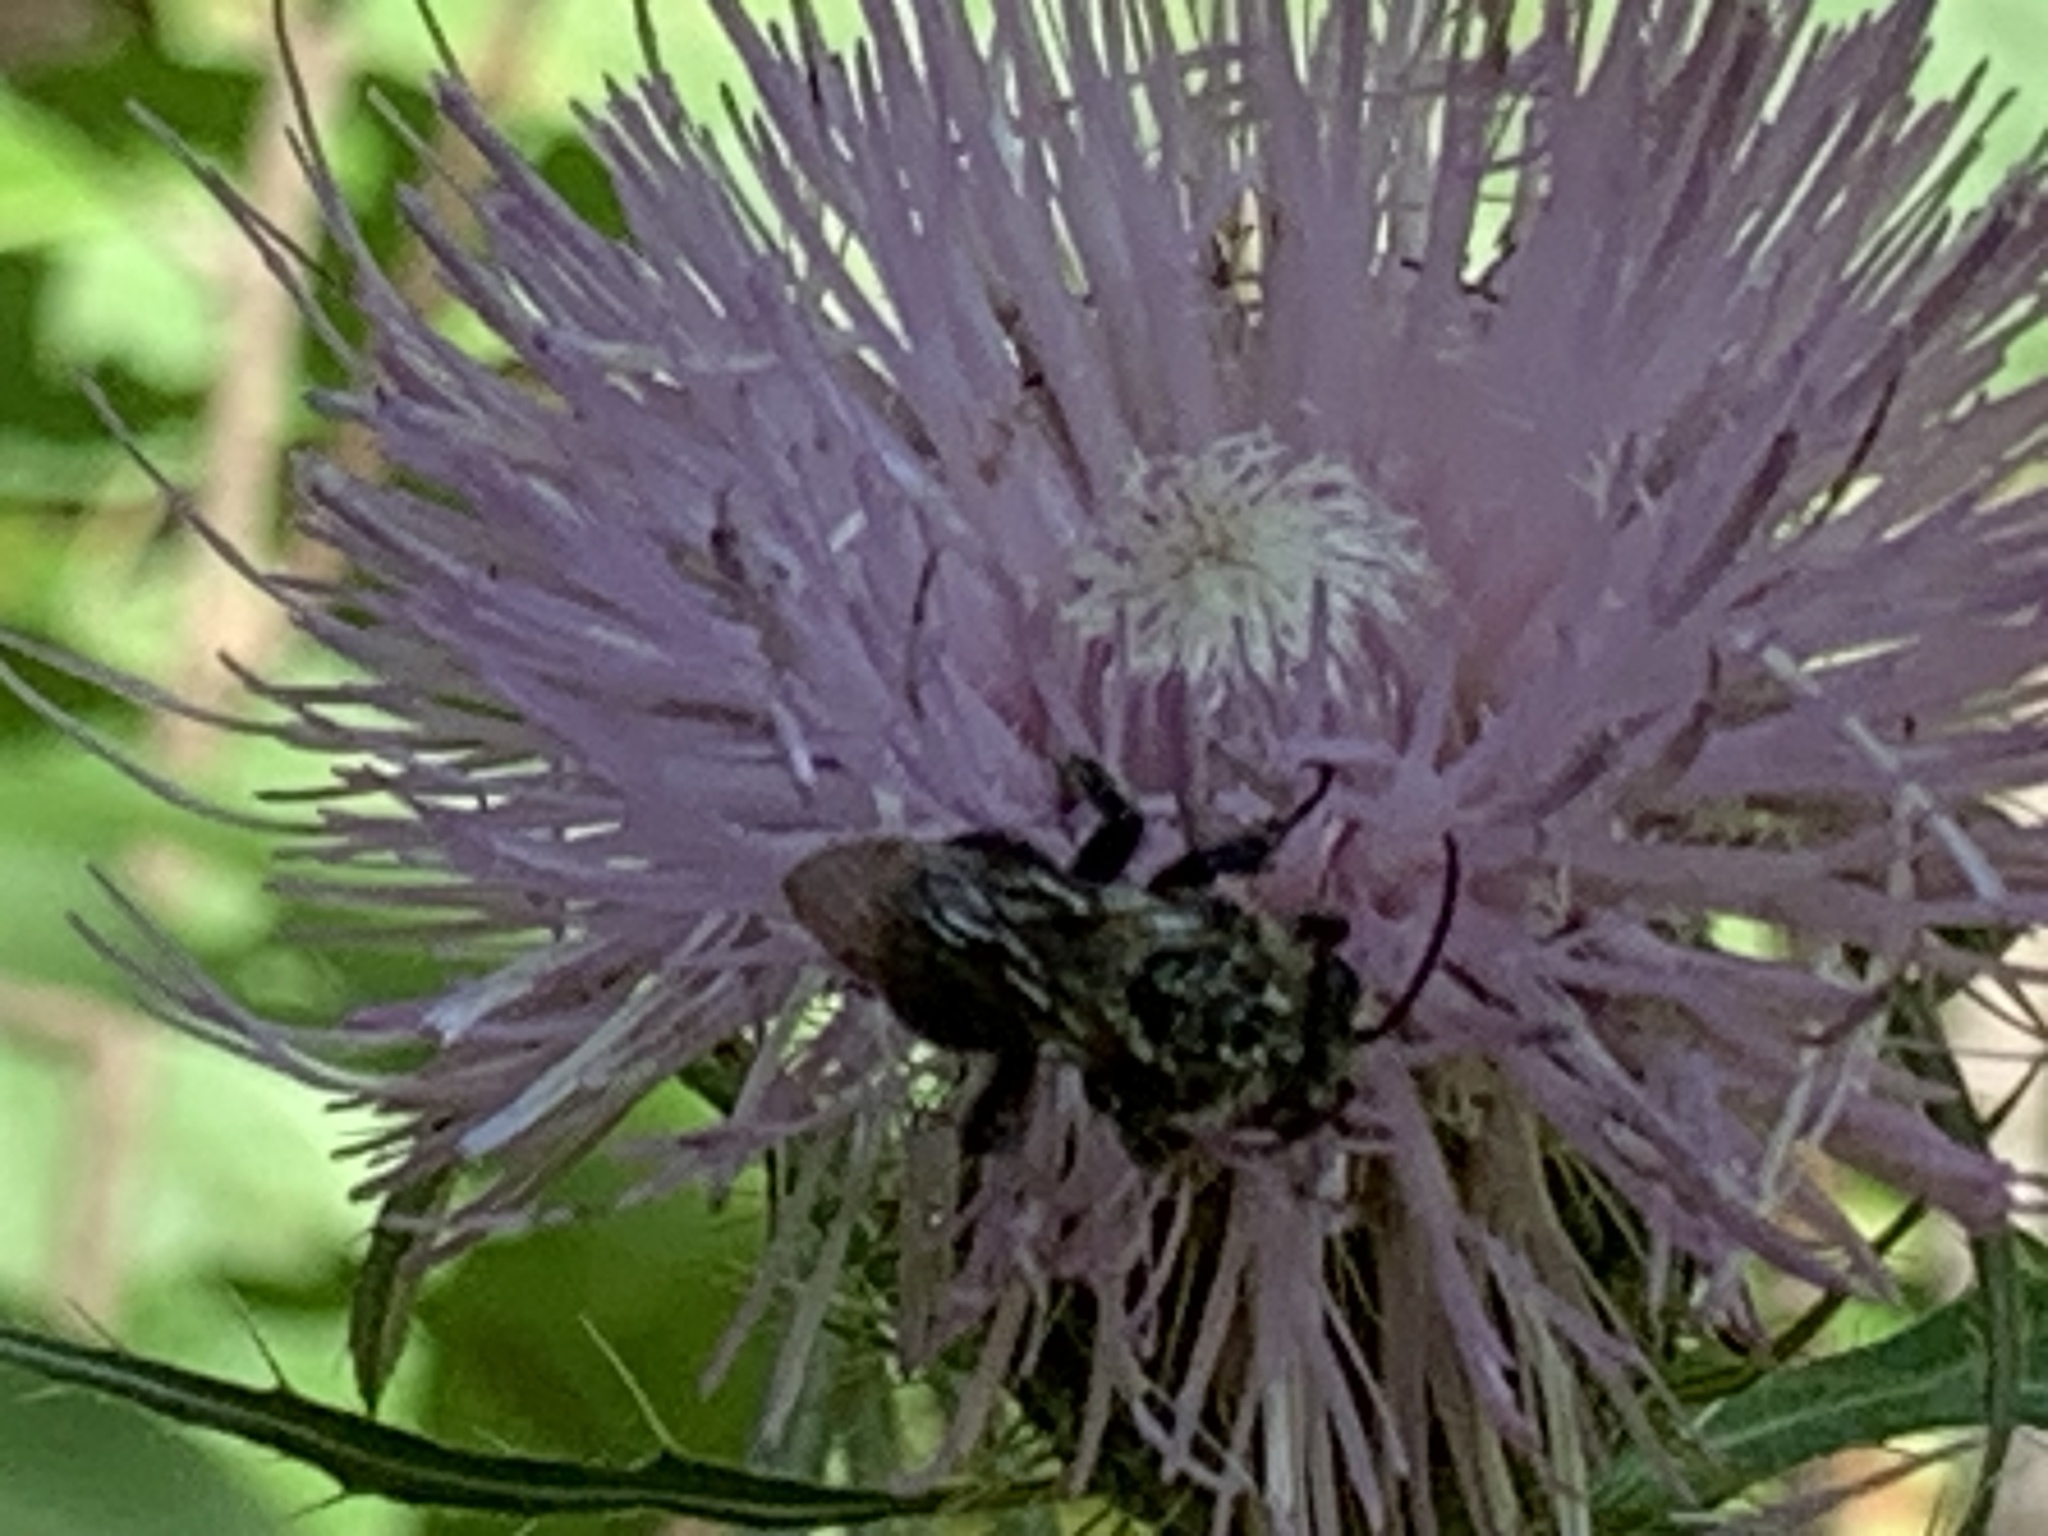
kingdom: Animalia
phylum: Arthropoda
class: Insecta
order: Hymenoptera
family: Apidae
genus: Melissodes
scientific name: Melissodes desponsus
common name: Thistle long-horned bee
